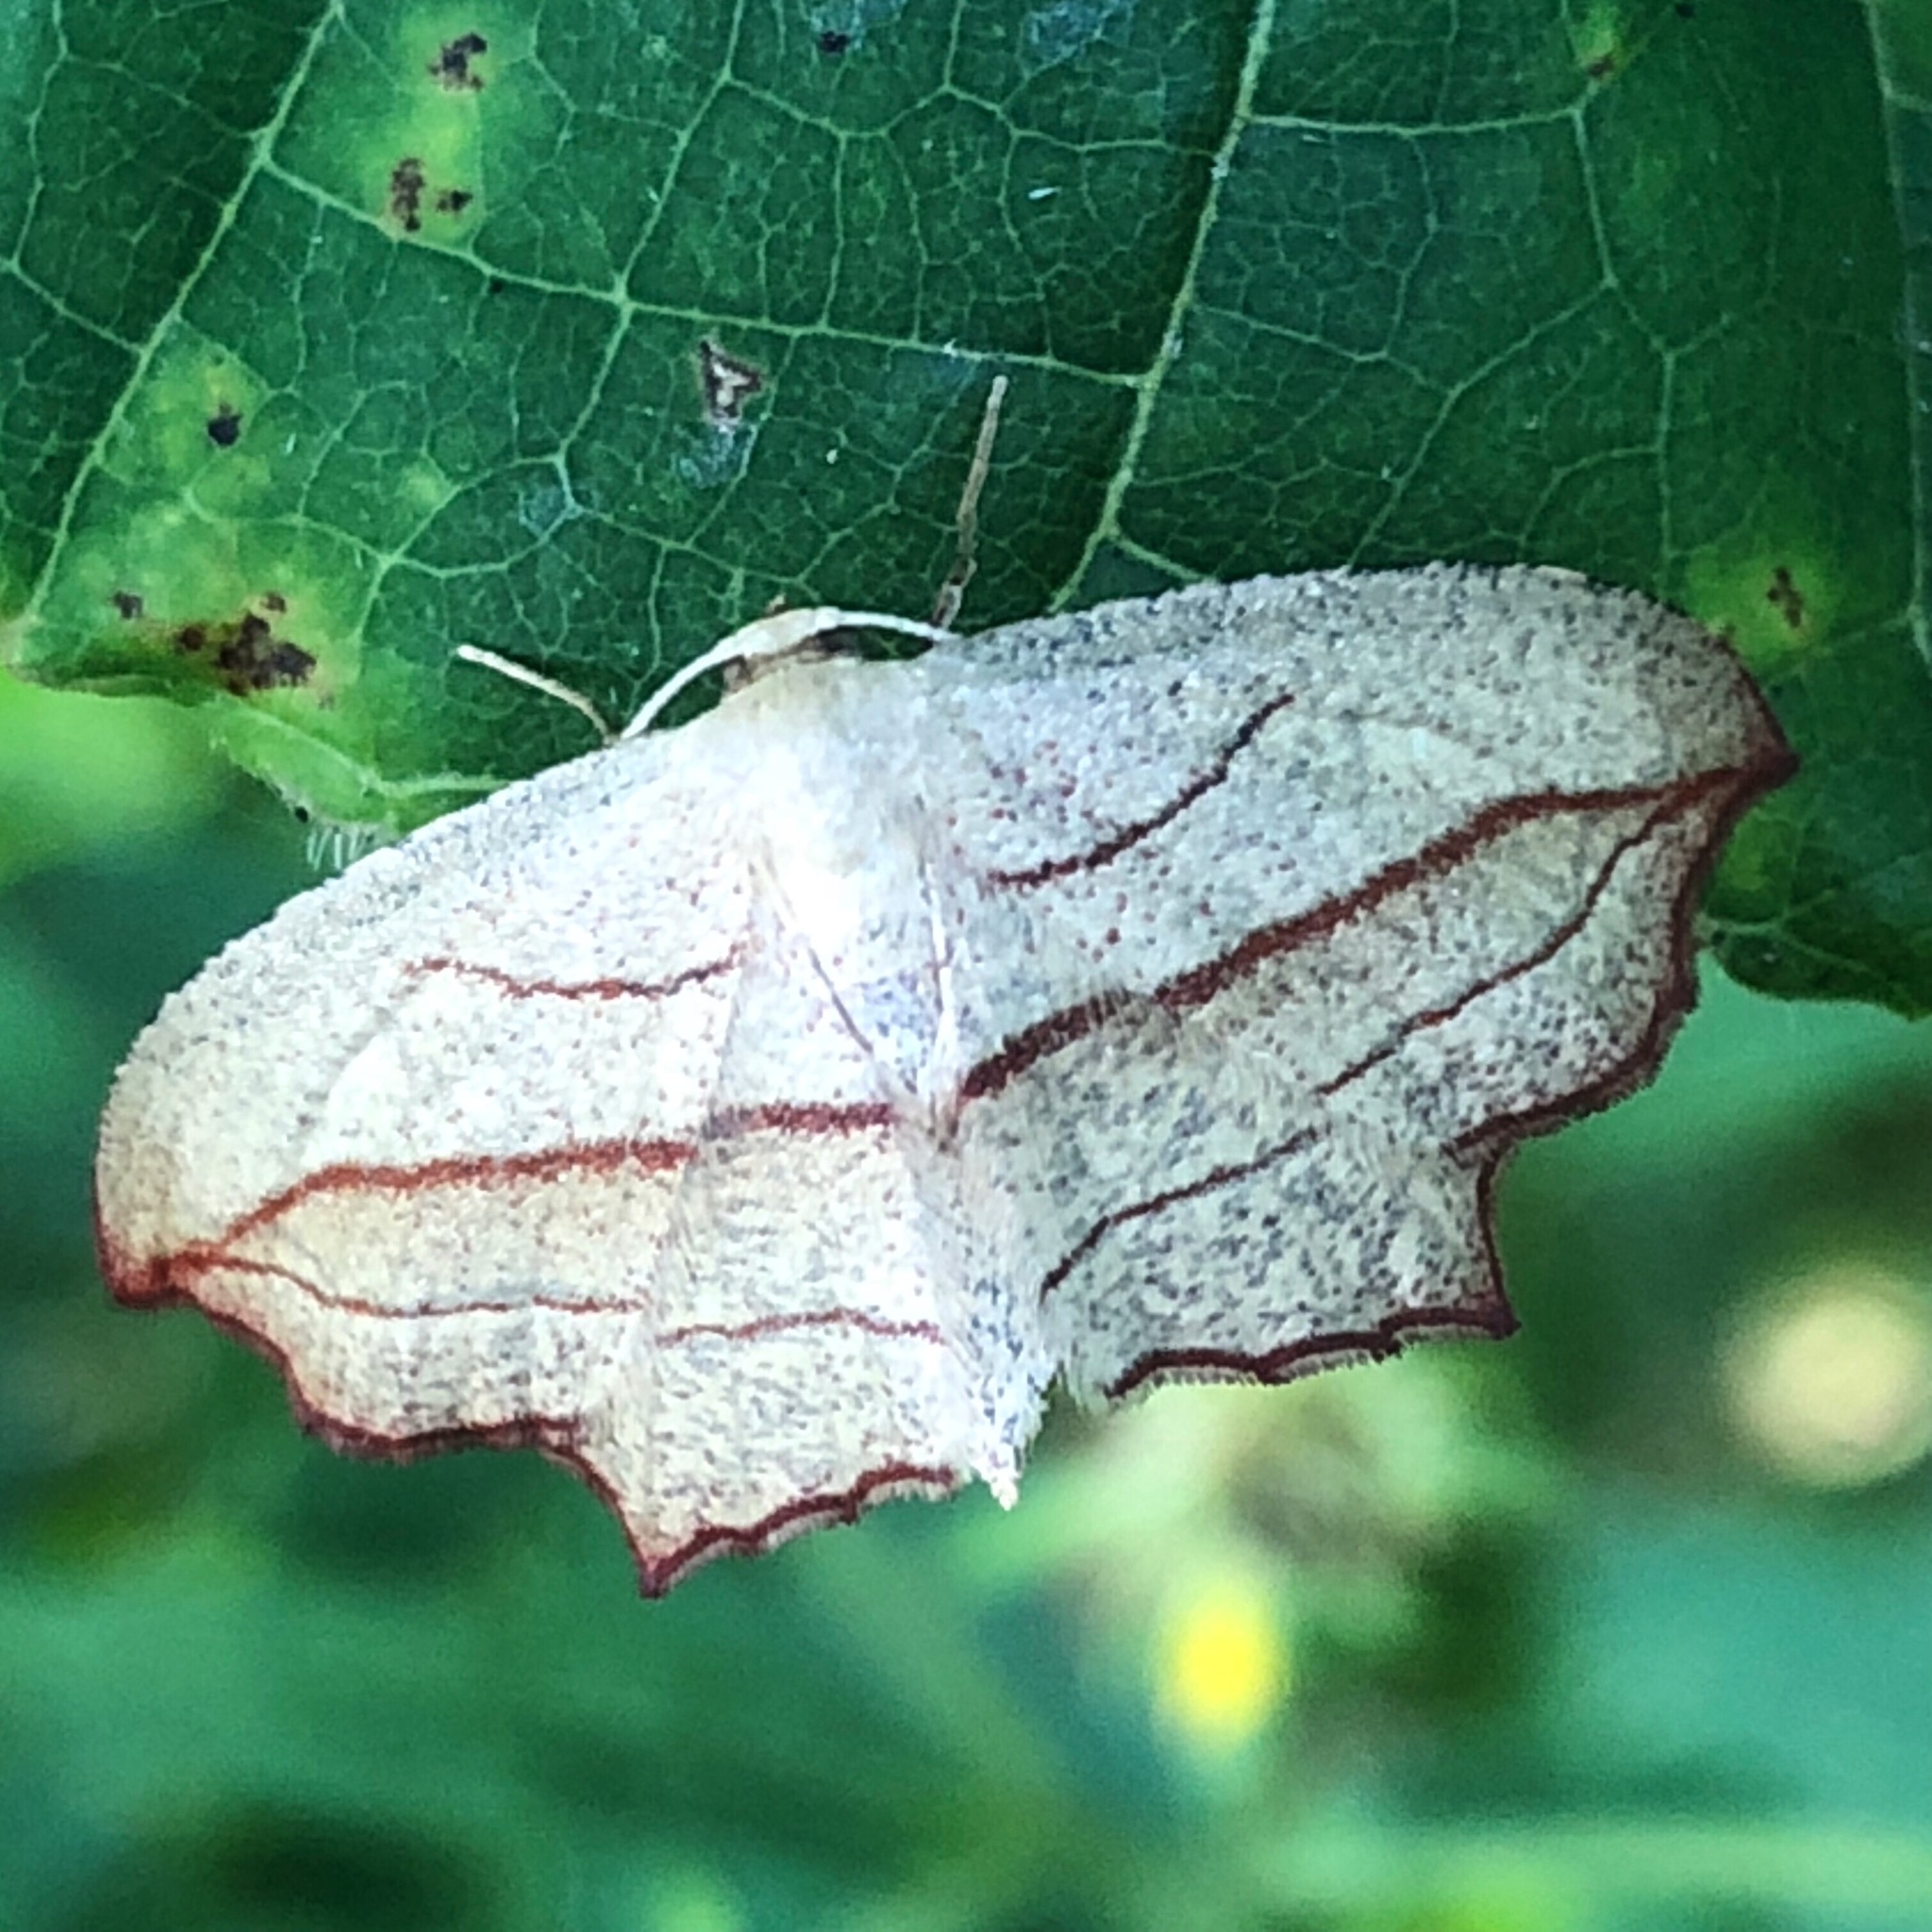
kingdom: Animalia
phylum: Arthropoda
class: Insecta
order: Lepidoptera
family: Geometridae
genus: Timandra
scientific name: Timandra amaturaria
